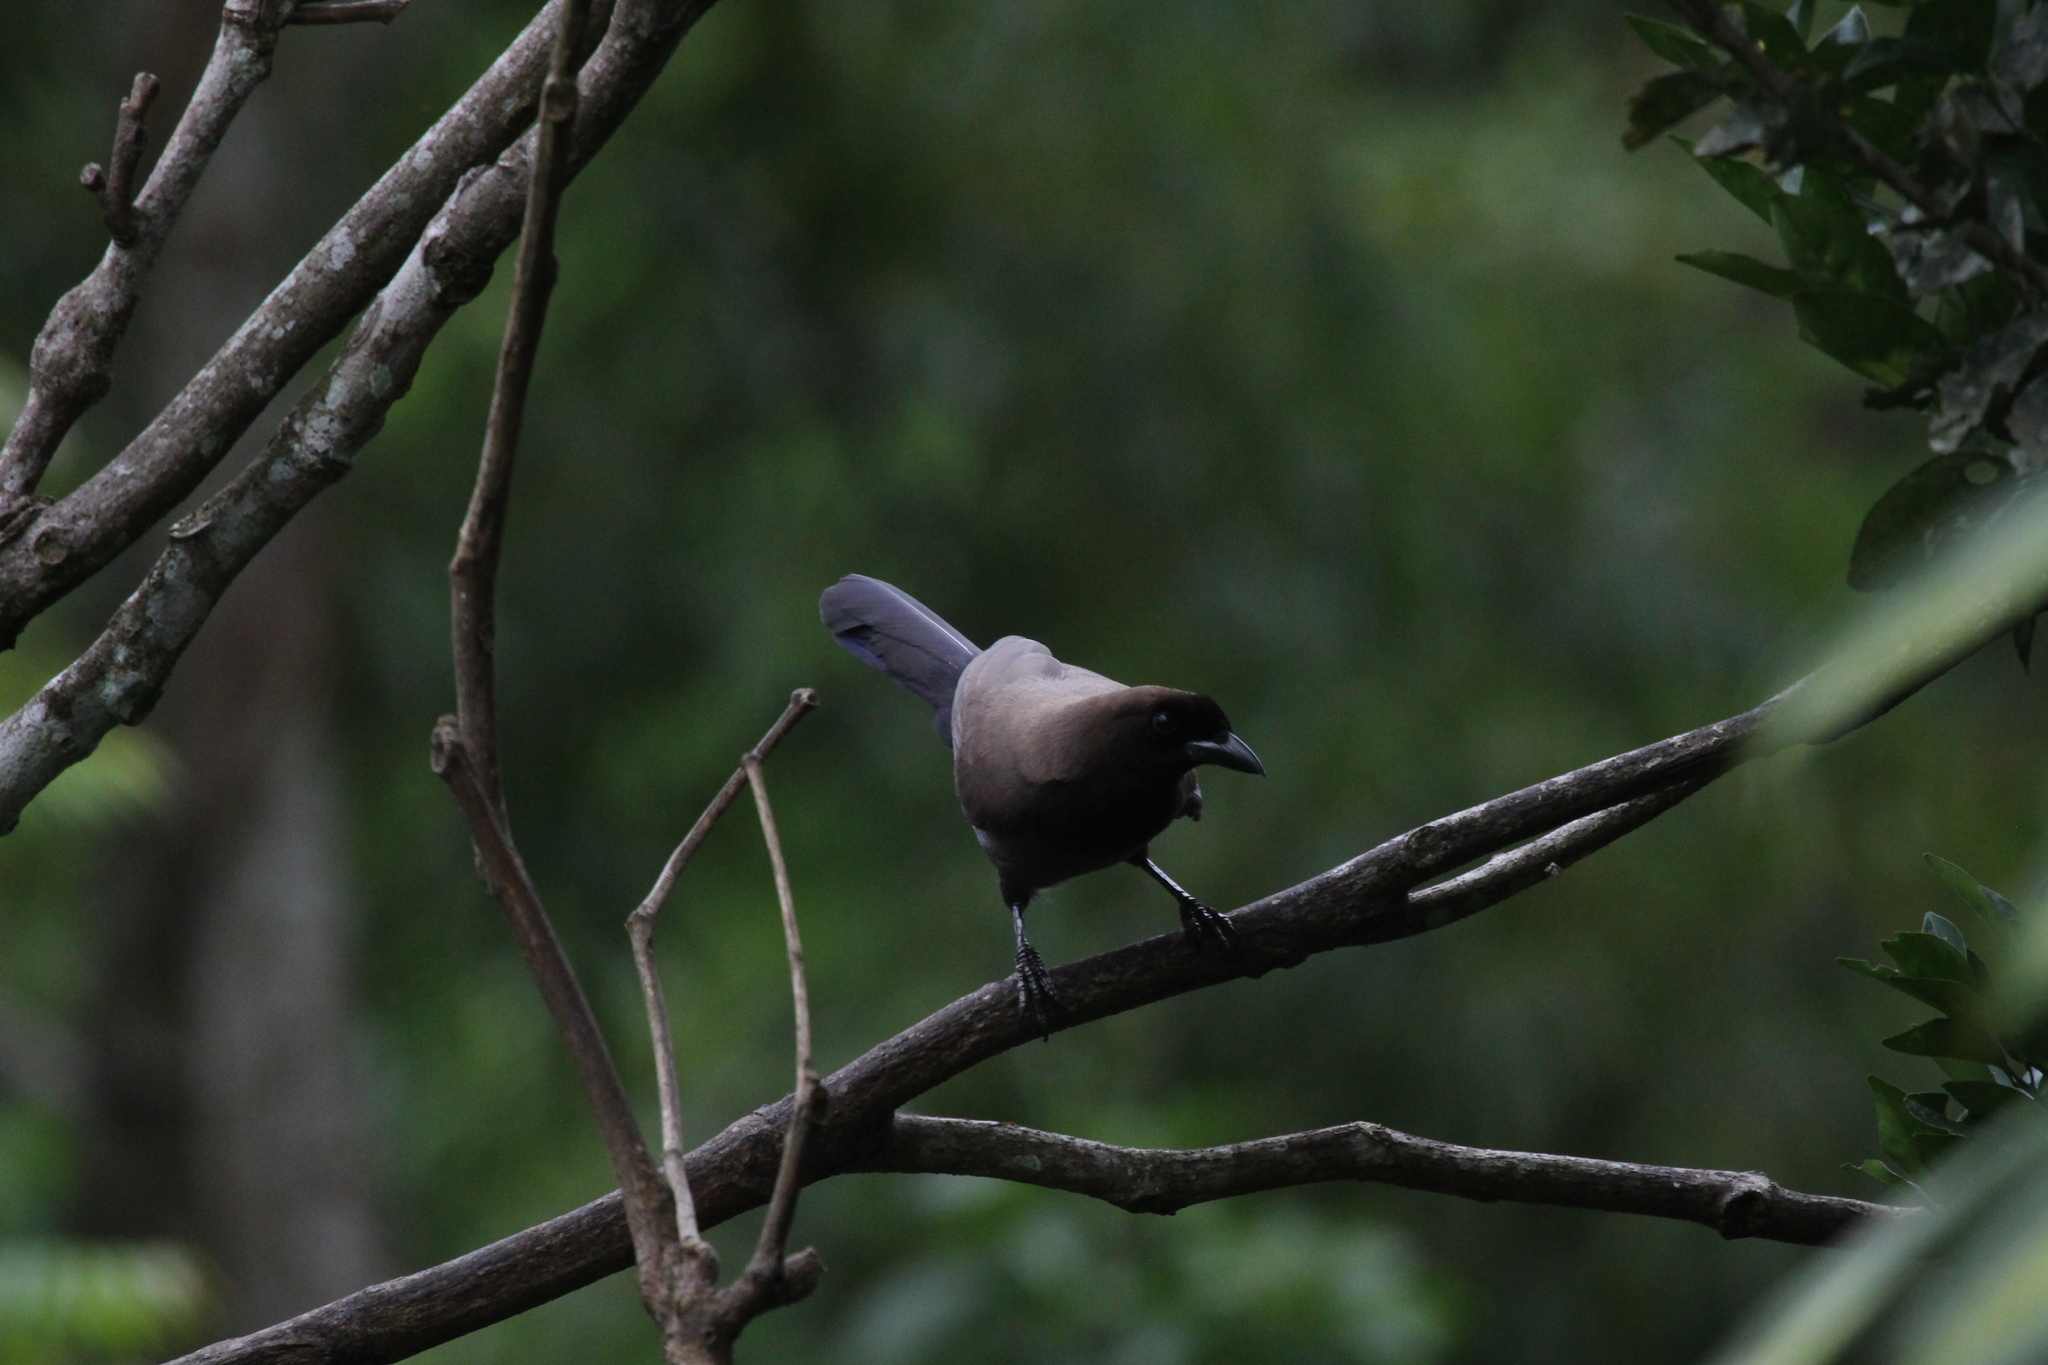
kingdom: Animalia
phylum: Chordata
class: Aves
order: Passeriformes
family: Corvidae
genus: Cyanocorax
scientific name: Cyanocorax cyanomelas
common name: Purplish jay
